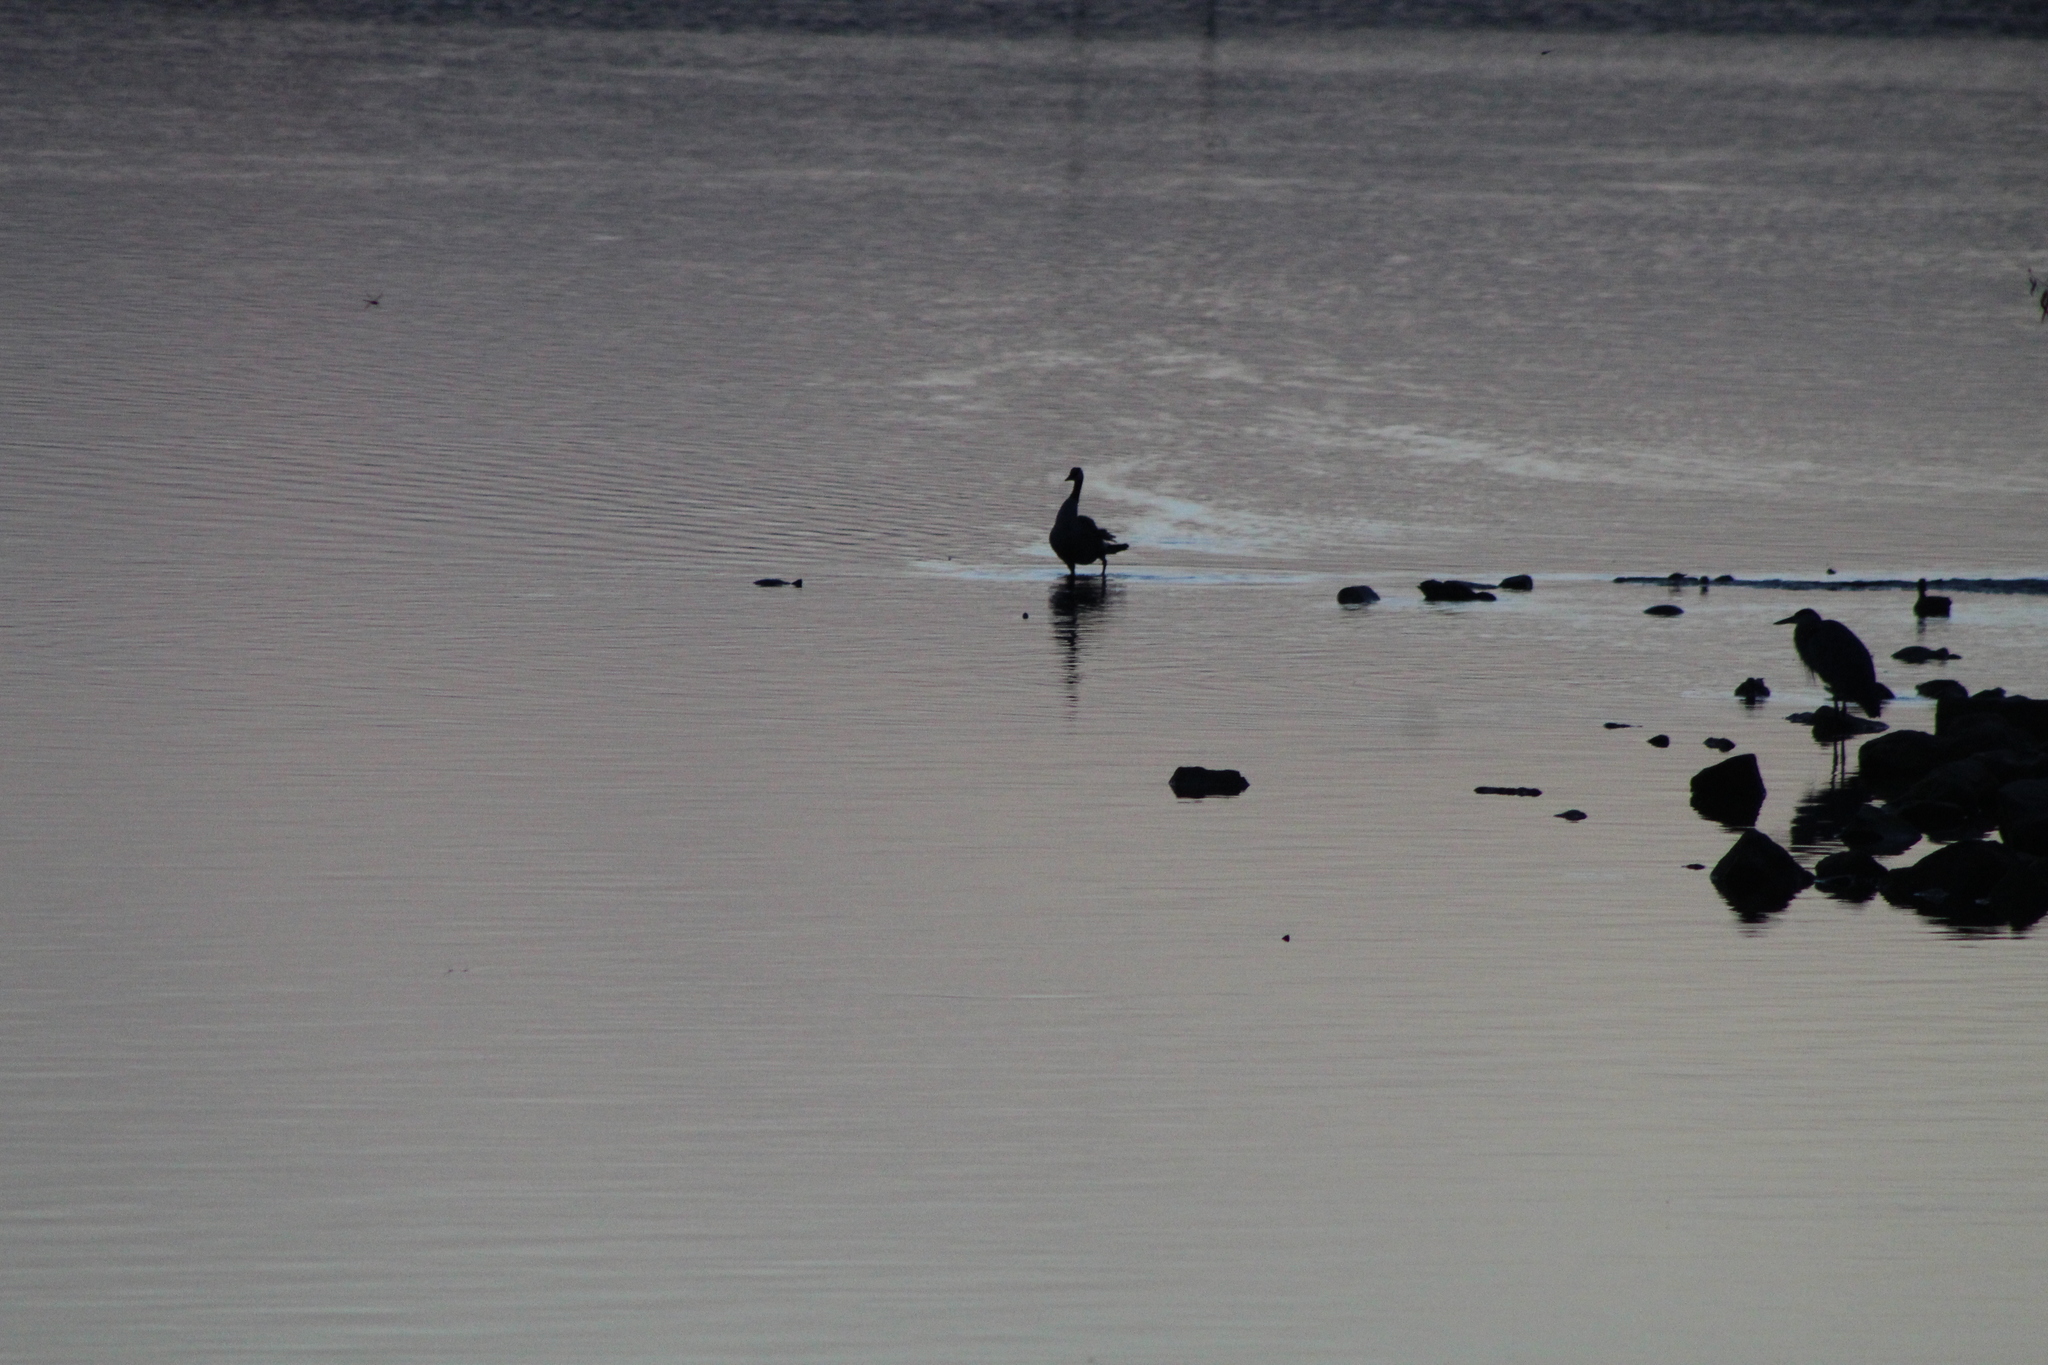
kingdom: Animalia
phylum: Chordata
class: Aves
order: Anseriformes
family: Anatidae
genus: Branta
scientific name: Branta canadensis
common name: Canada goose
